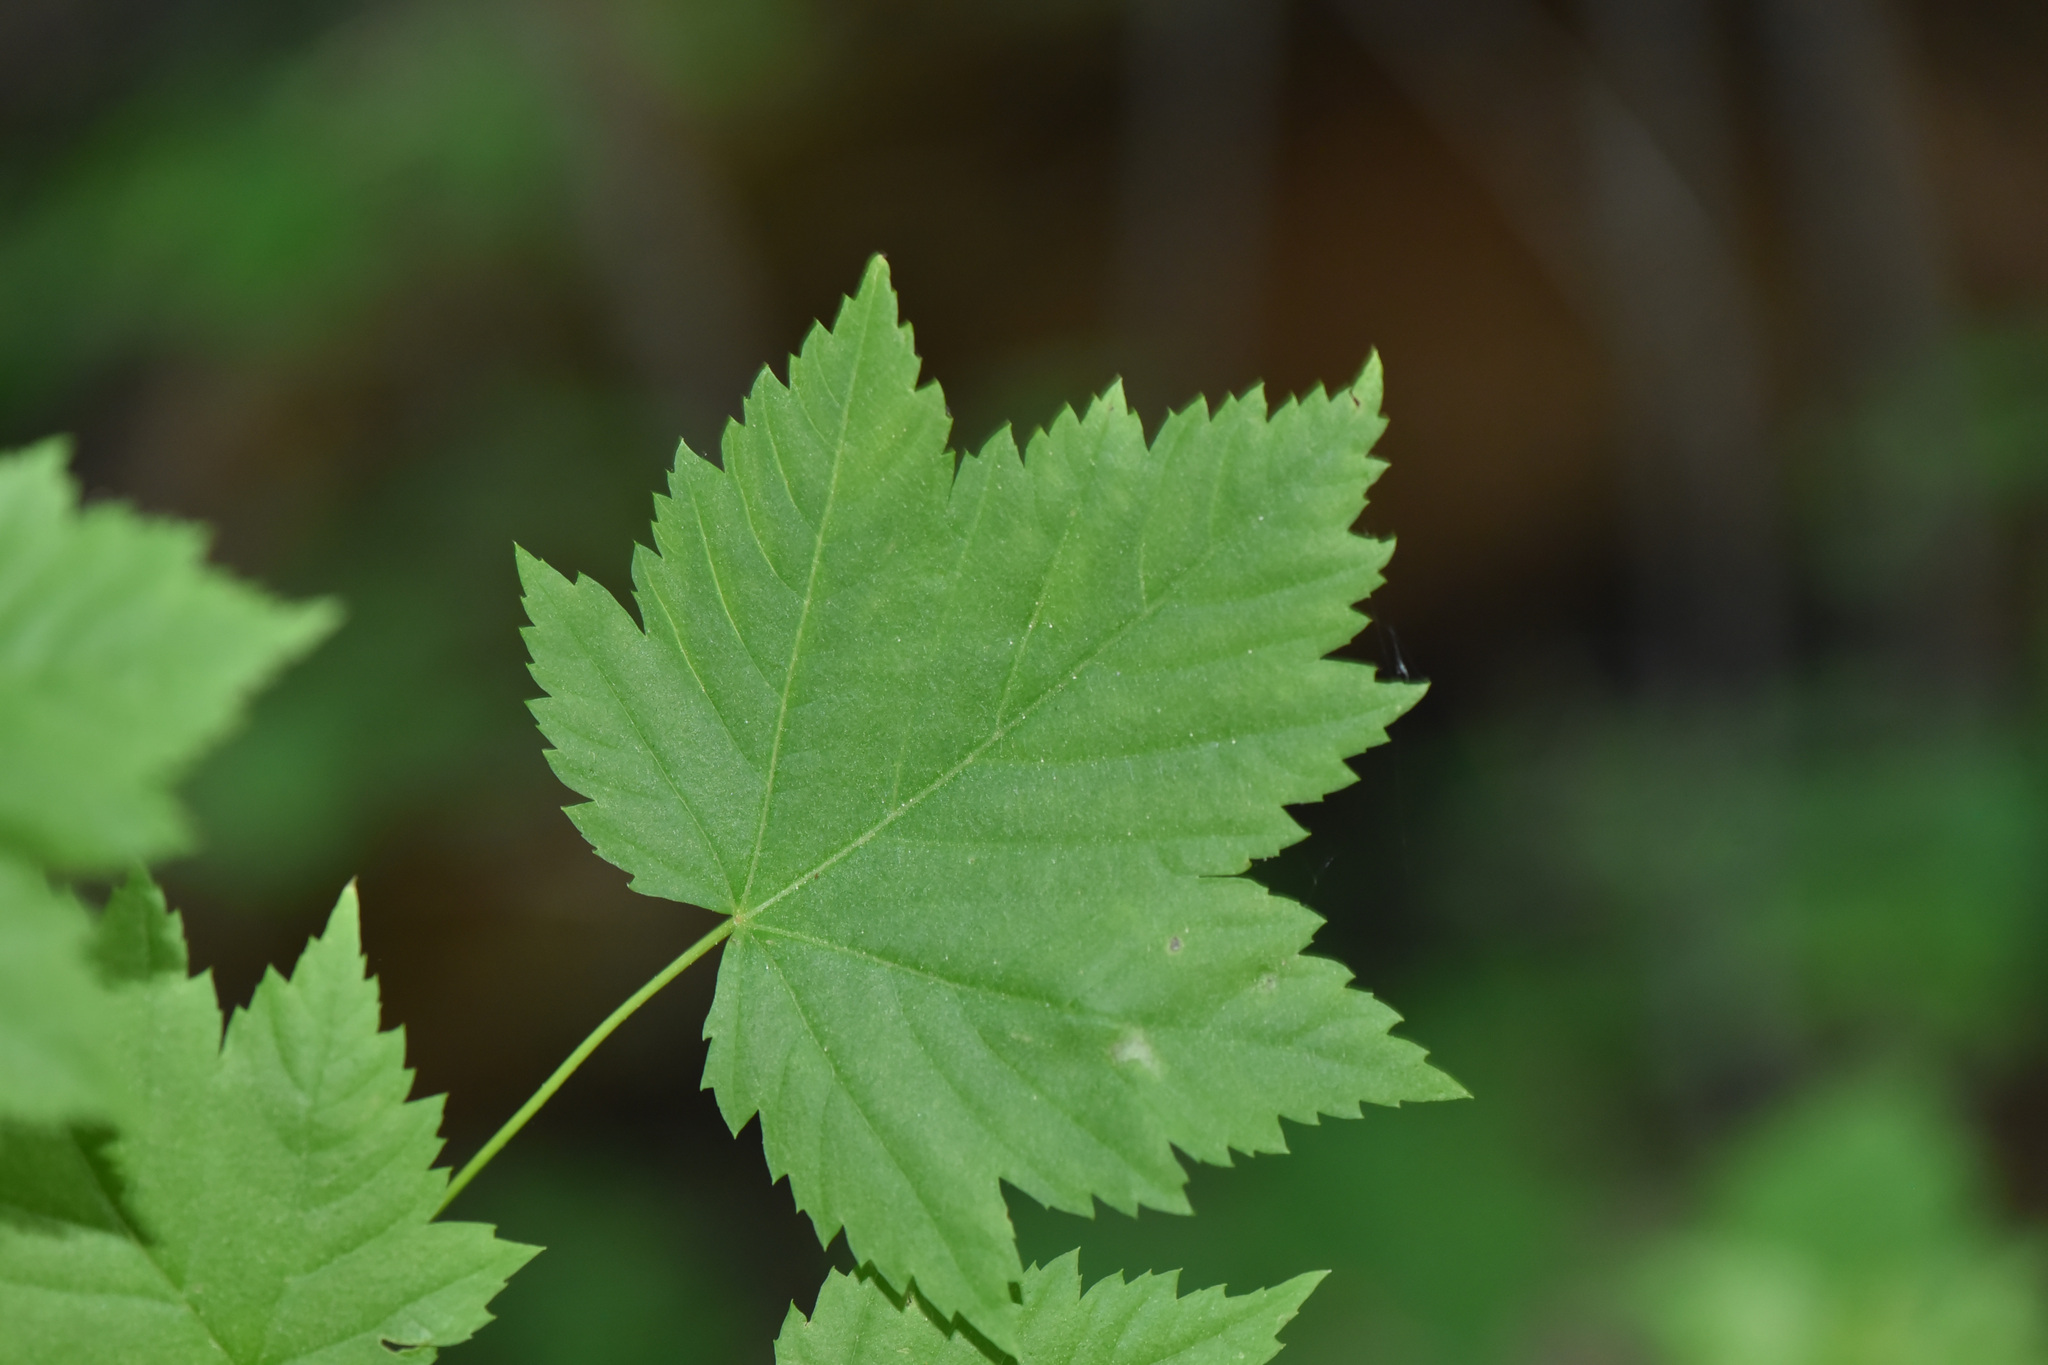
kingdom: Plantae
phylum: Tracheophyta
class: Magnoliopsida
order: Sapindales
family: Sapindaceae
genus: Acer
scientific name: Acer glabrum
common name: Rocky mountain maple
